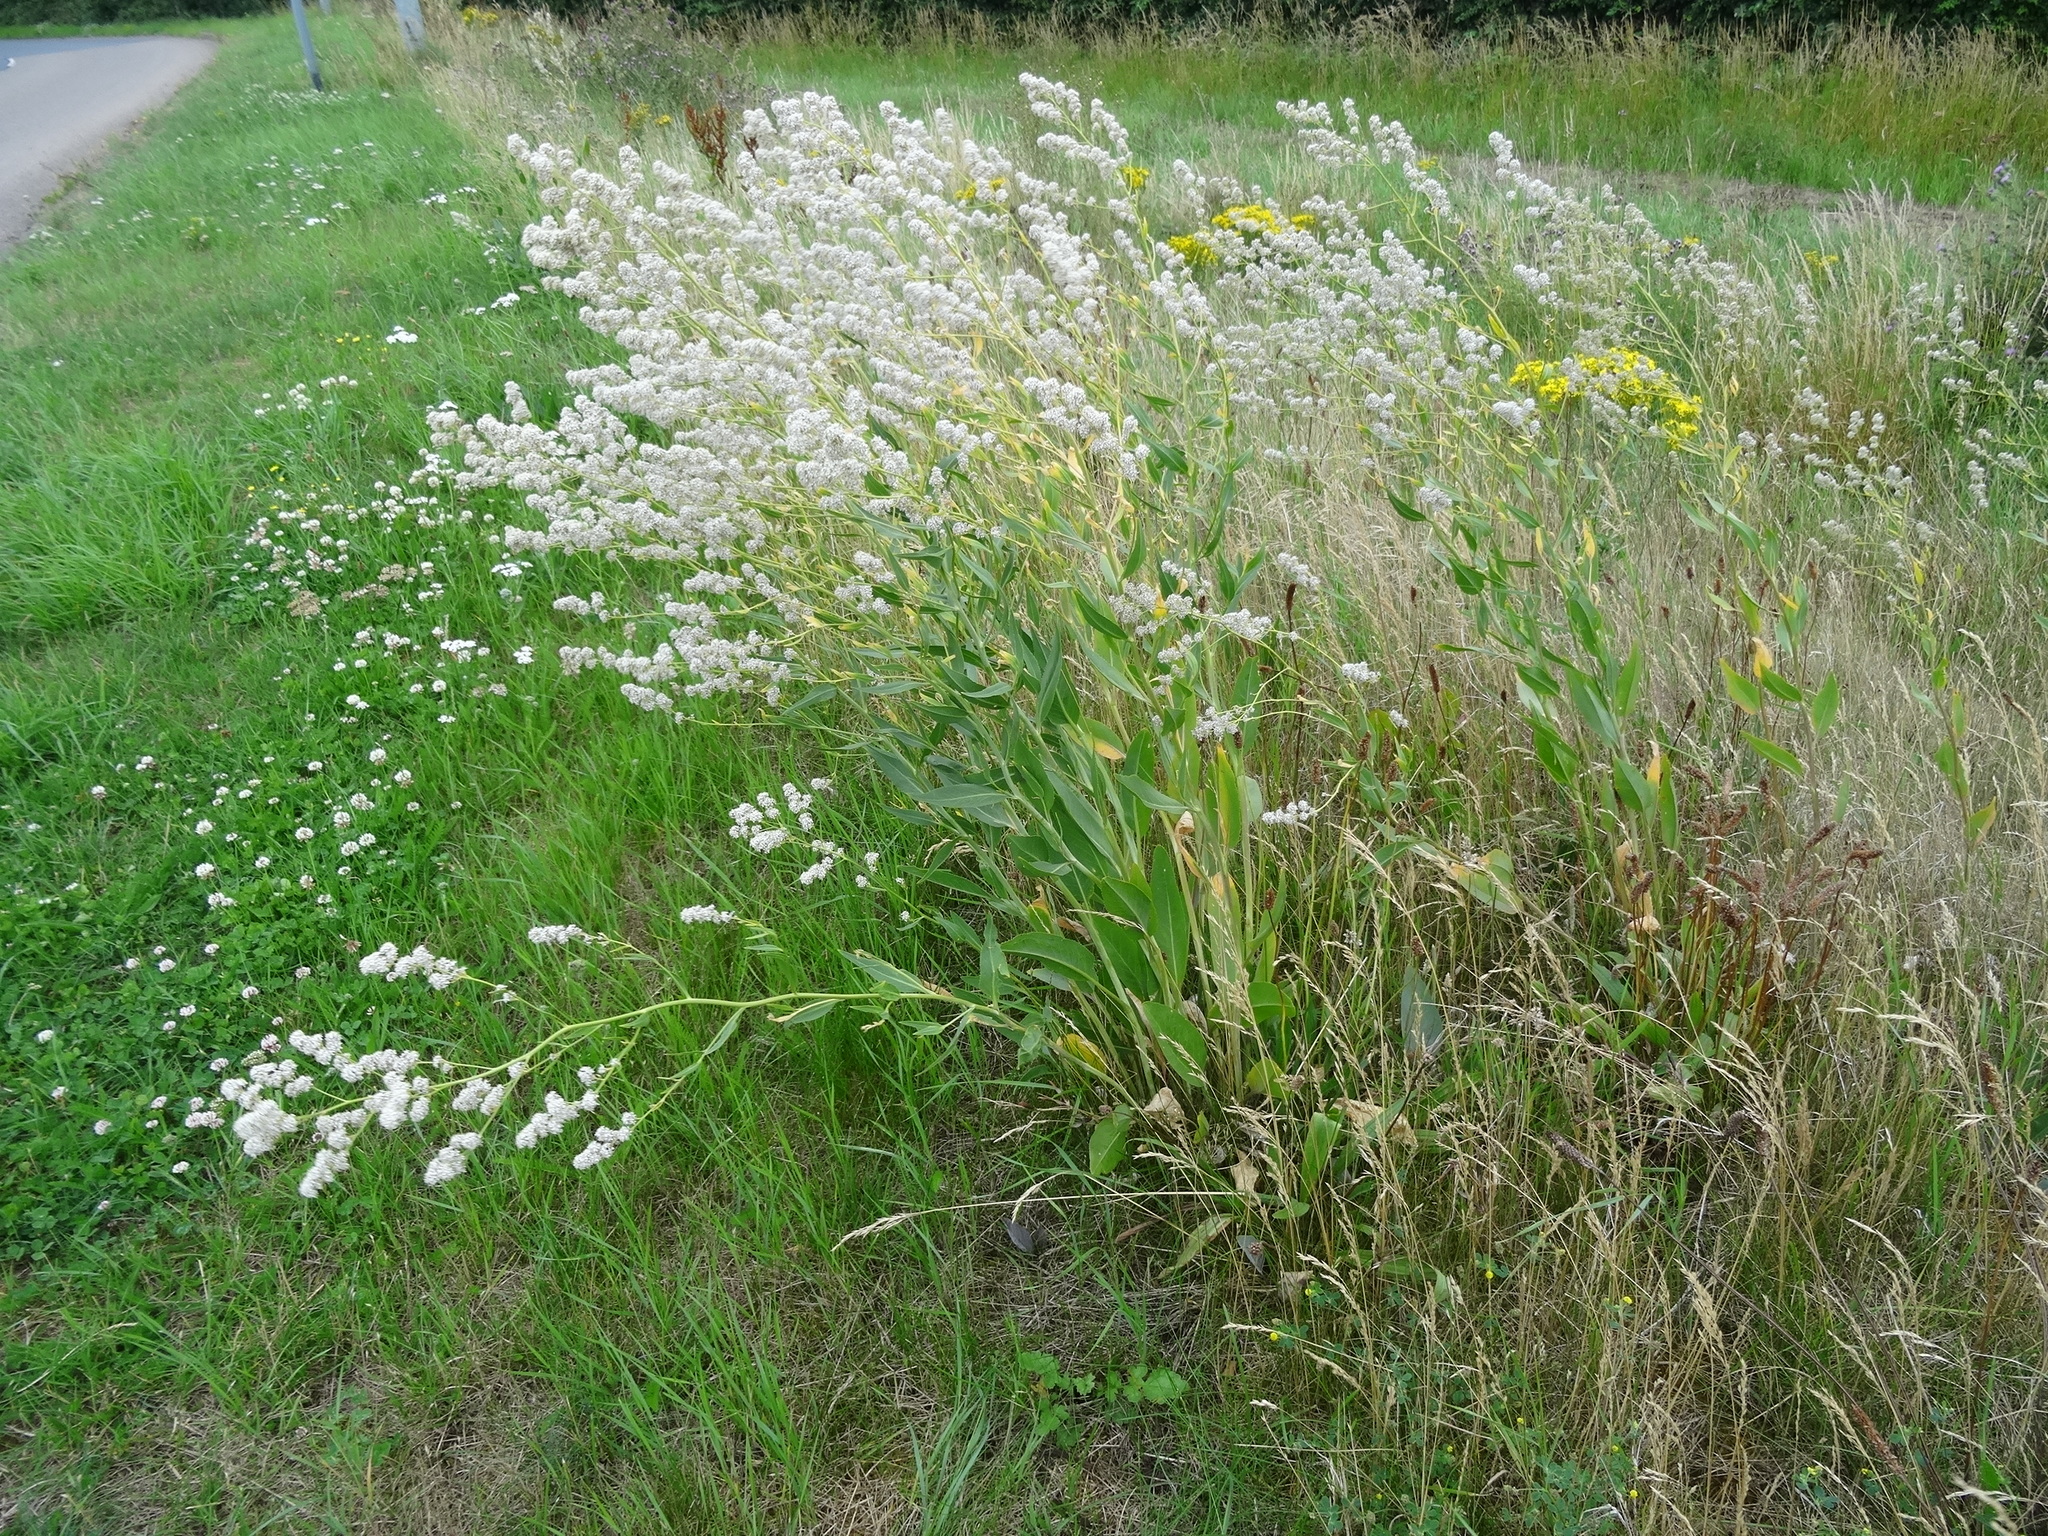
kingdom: Plantae
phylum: Tracheophyta
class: Magnoliopsida
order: Brassicales
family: Brassicaceae
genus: Lepidium
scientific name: Lepidium latifolium
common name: Dittander
